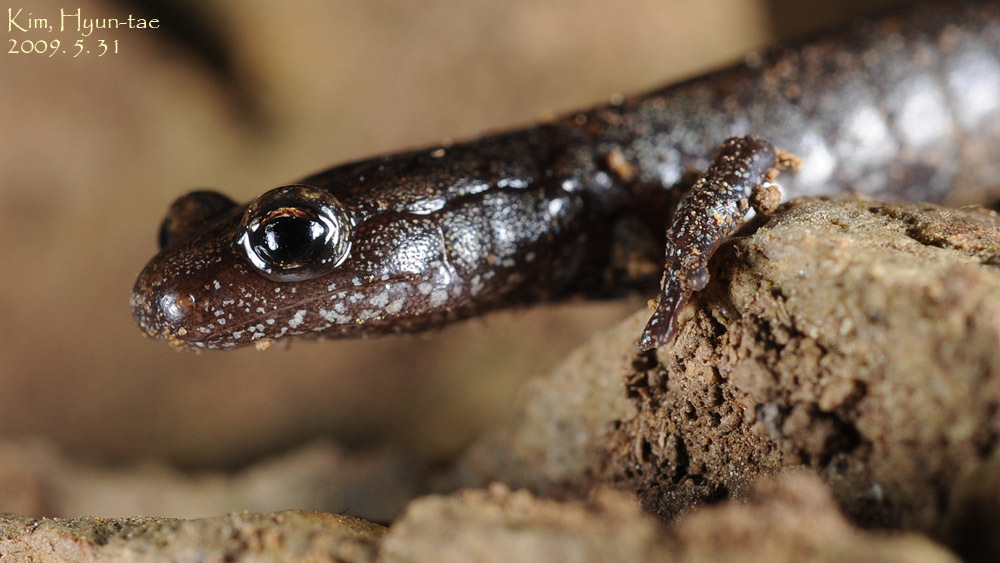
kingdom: Animalia
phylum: Chordata
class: Amphibia
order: Caudata
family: Plethodontidae
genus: Karsenia
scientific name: Karsenia koreana
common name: Korean crevice salamander
